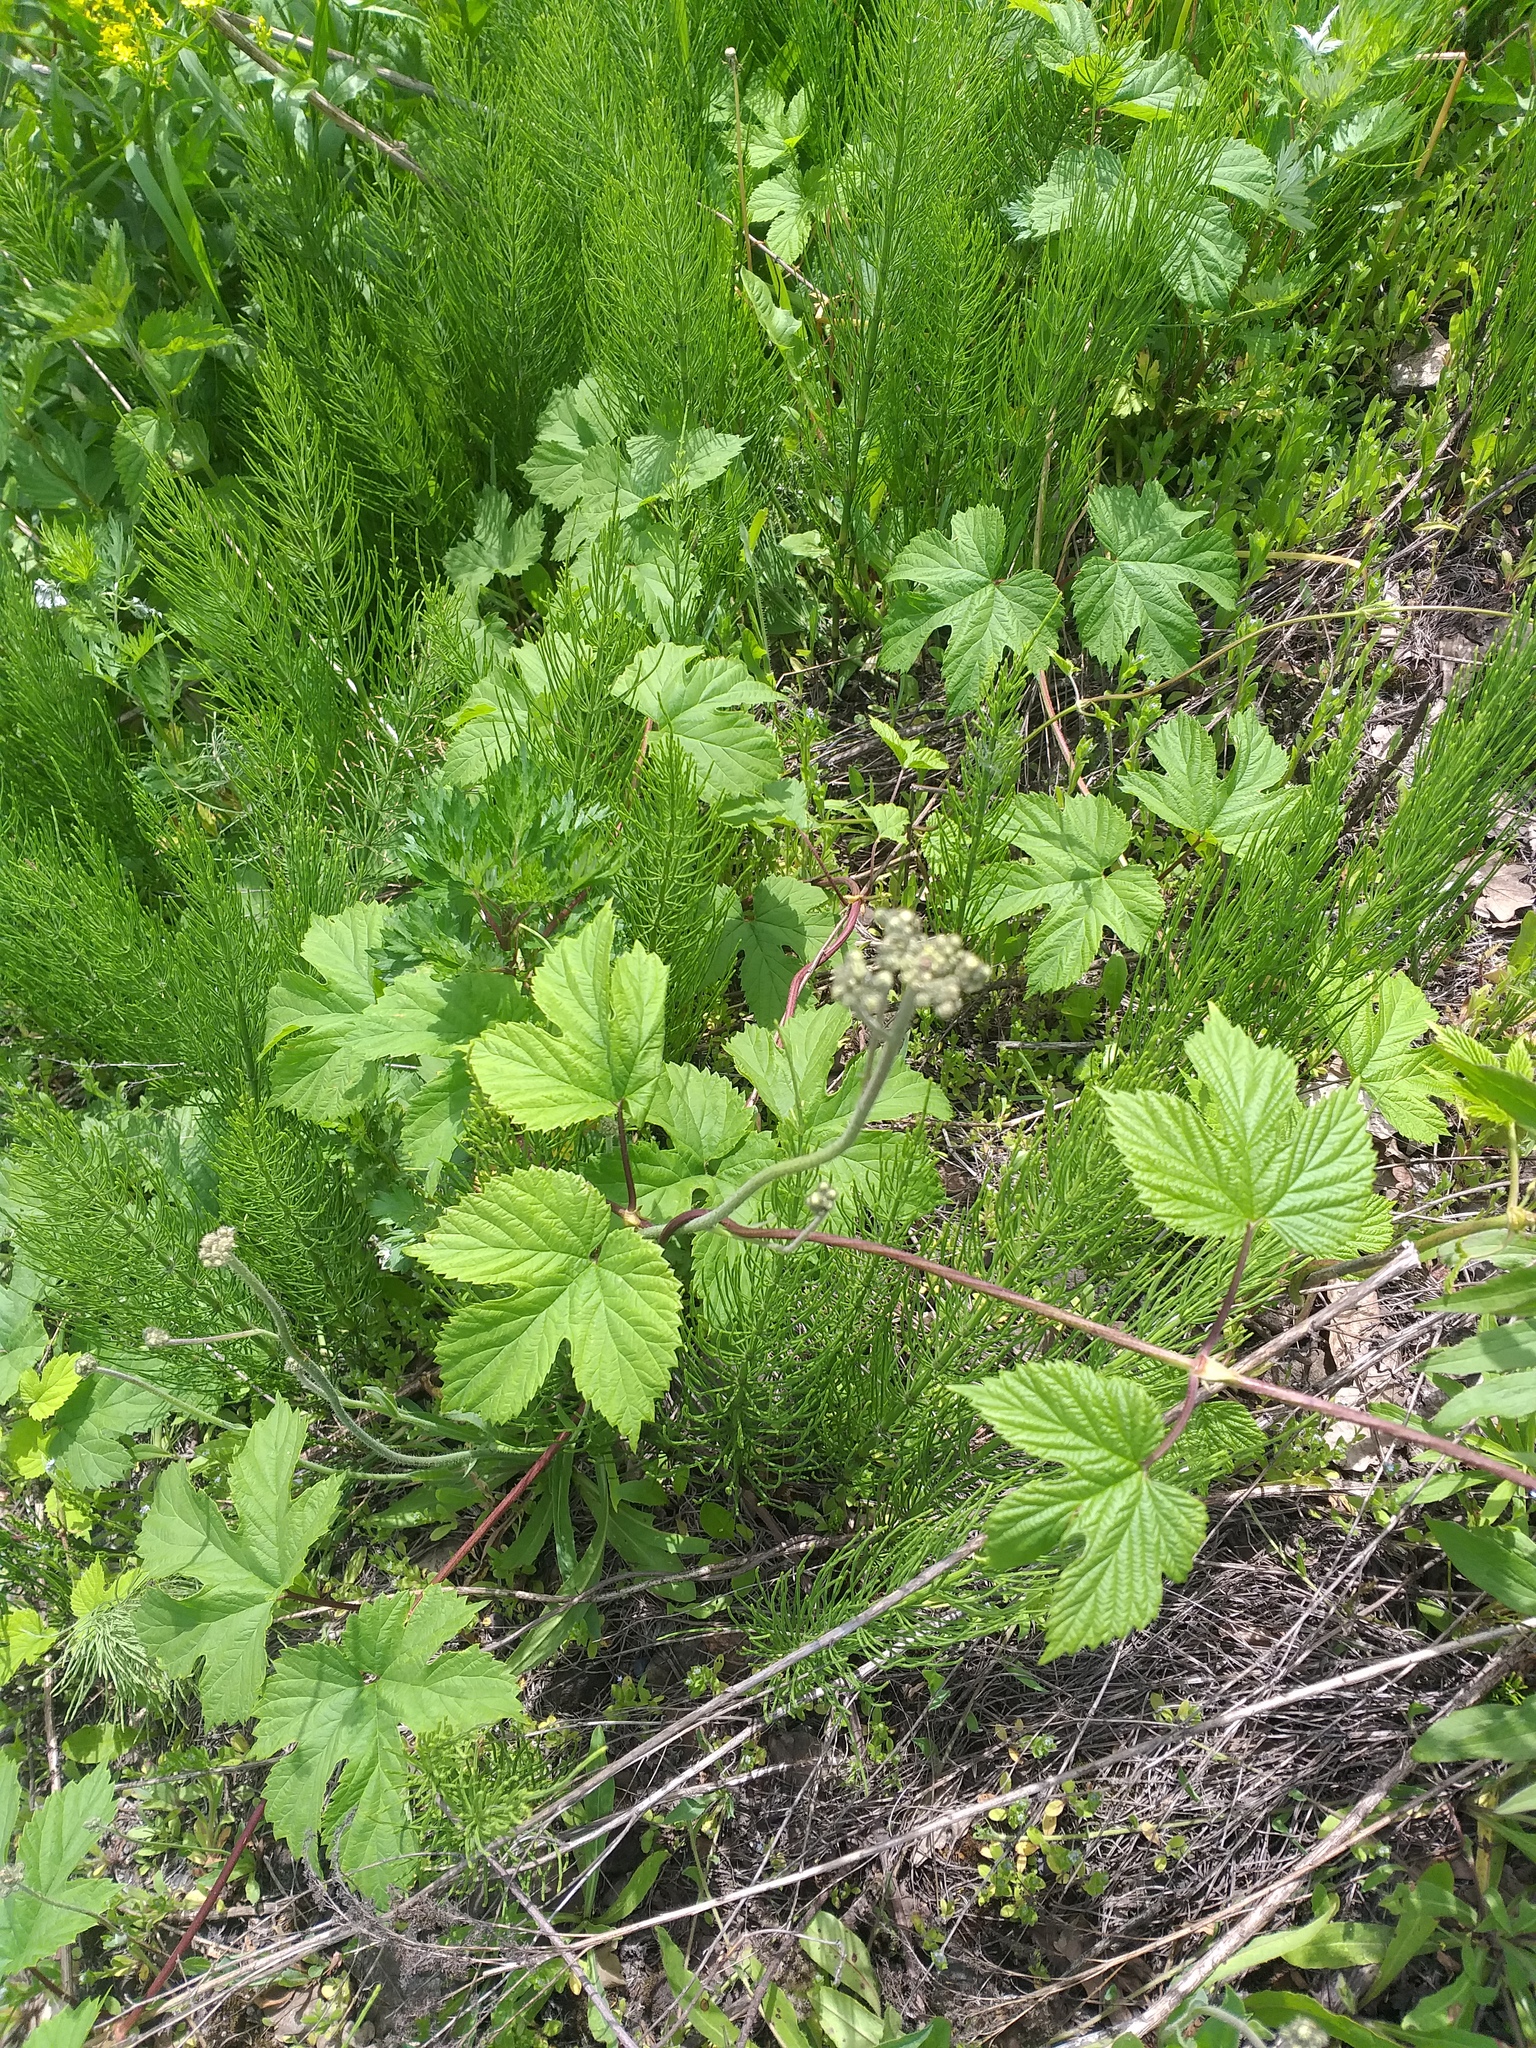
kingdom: Plantae
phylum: Tracheophyta
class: Magnoliopsida
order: Rosales
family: Cannabaceae
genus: Humulus
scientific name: Humulus lupulus
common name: Hop
